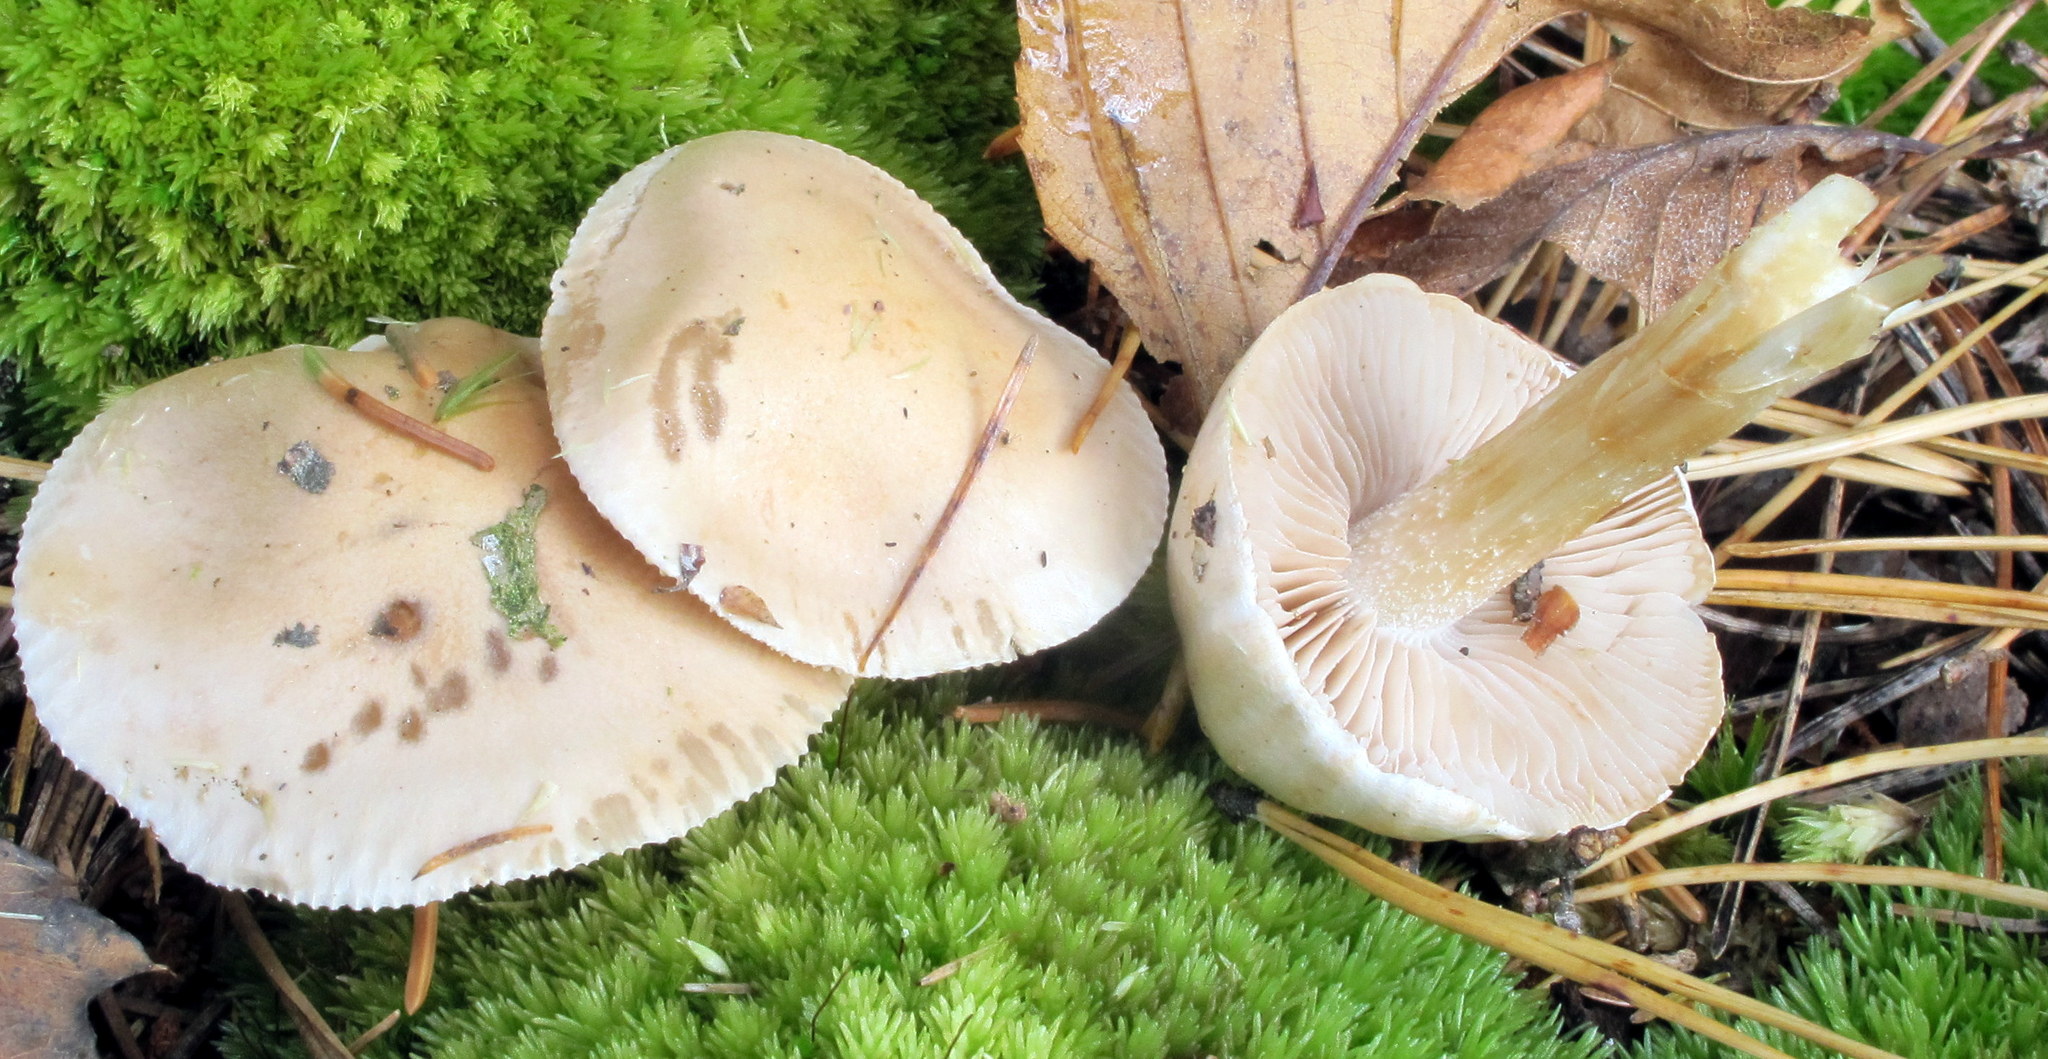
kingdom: Fungi
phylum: Basidiomycota
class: Agaricomycetes
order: Agaricales
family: Hymenogastraceae
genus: Hebeloma
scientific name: Hebeloma ingratum
